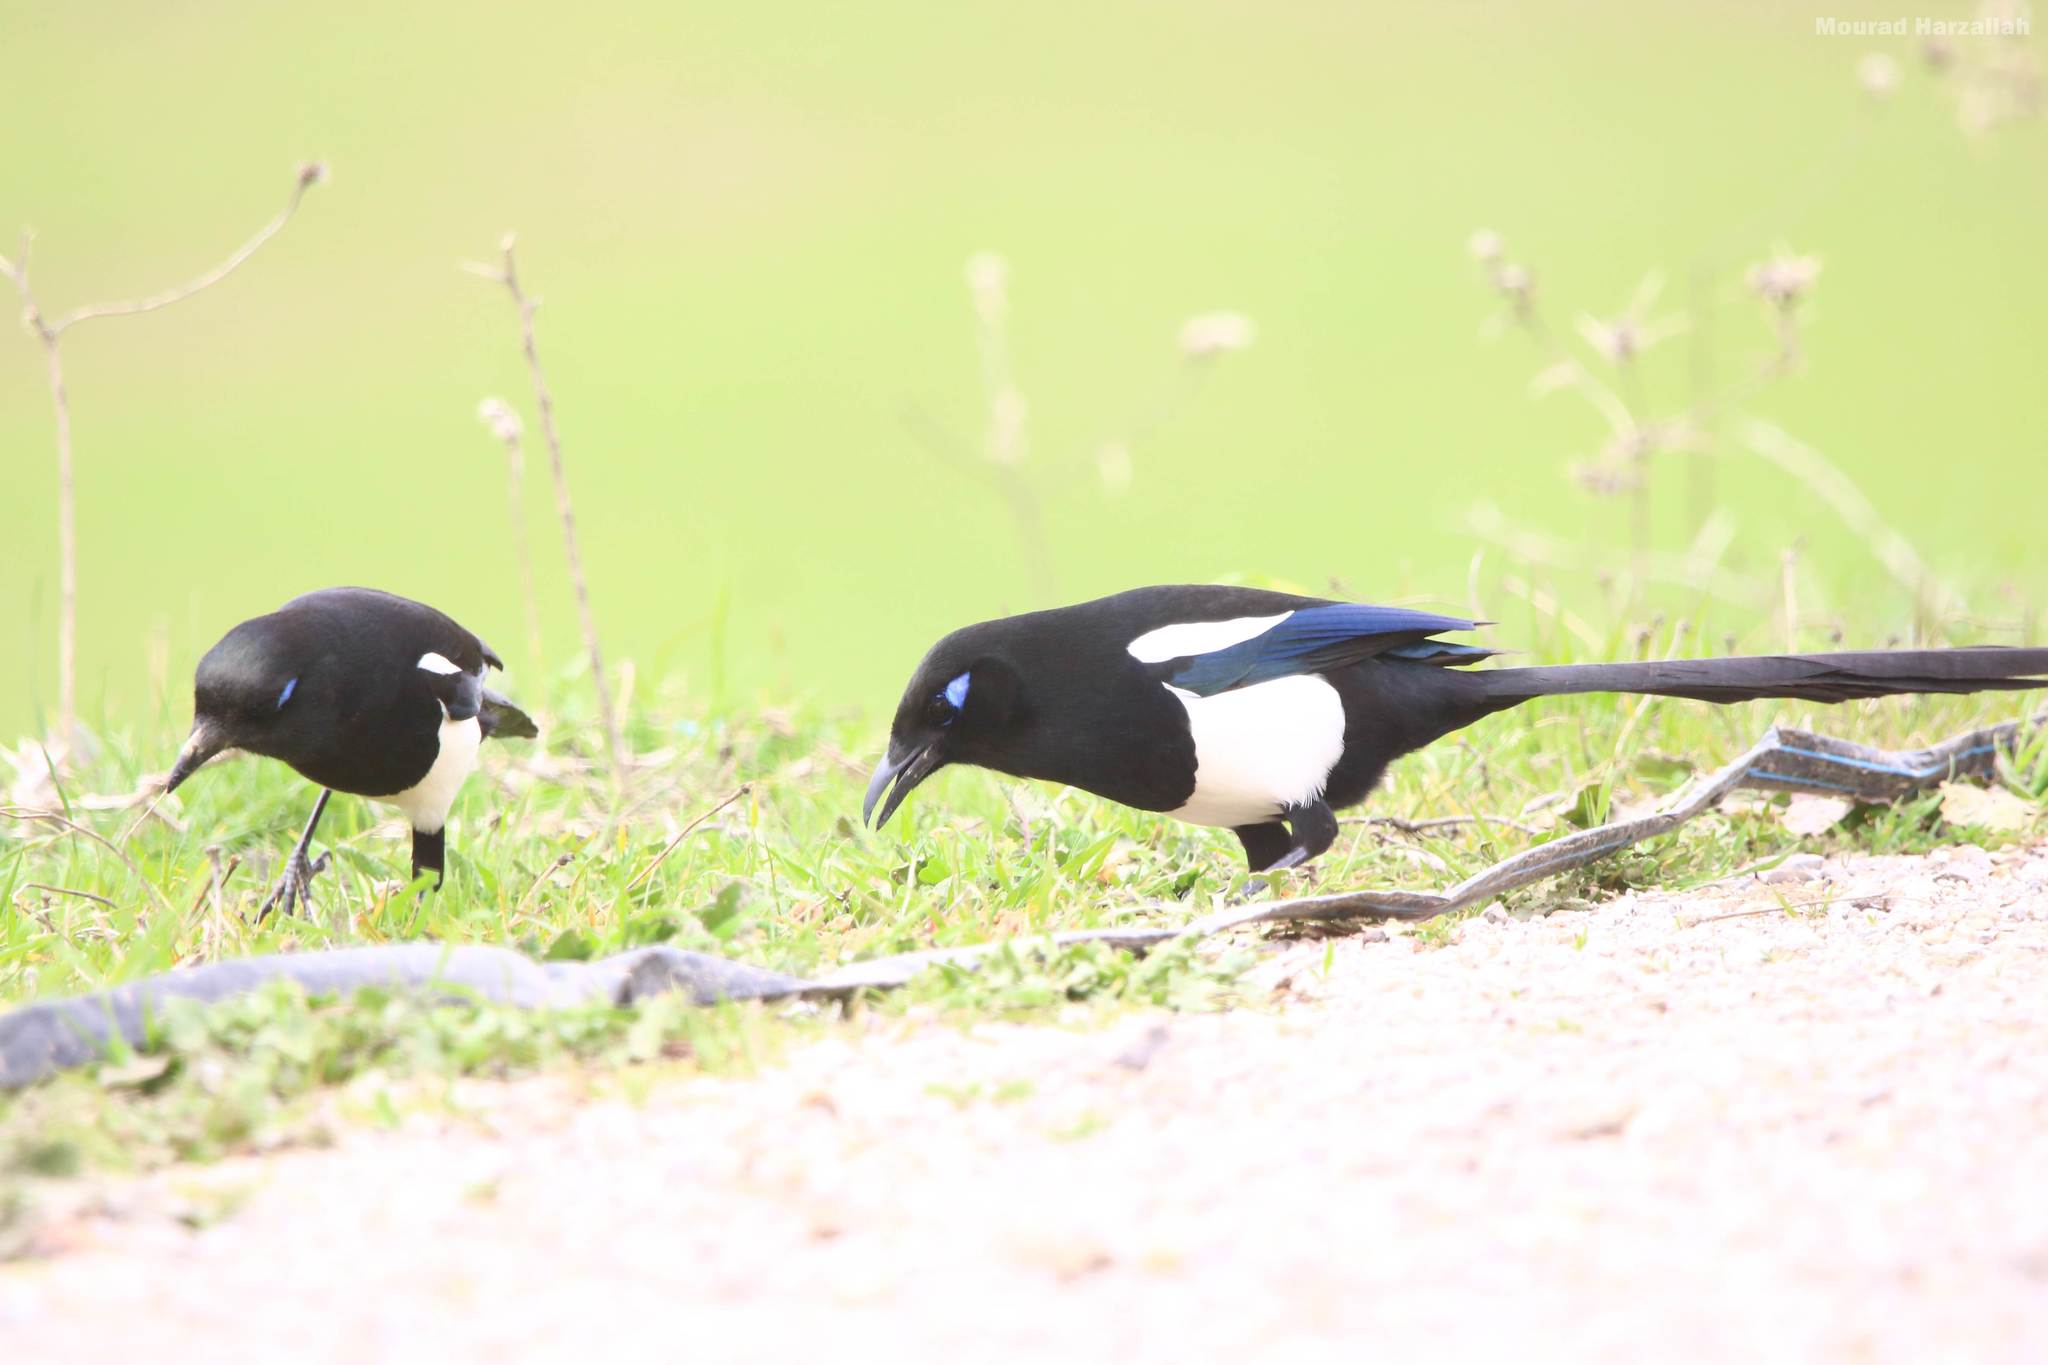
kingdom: Animalia
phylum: Chordata
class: Aves
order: Passeriformes
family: Corvidae
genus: Pica
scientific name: Pica mauritanica
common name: Maghreb magpie
